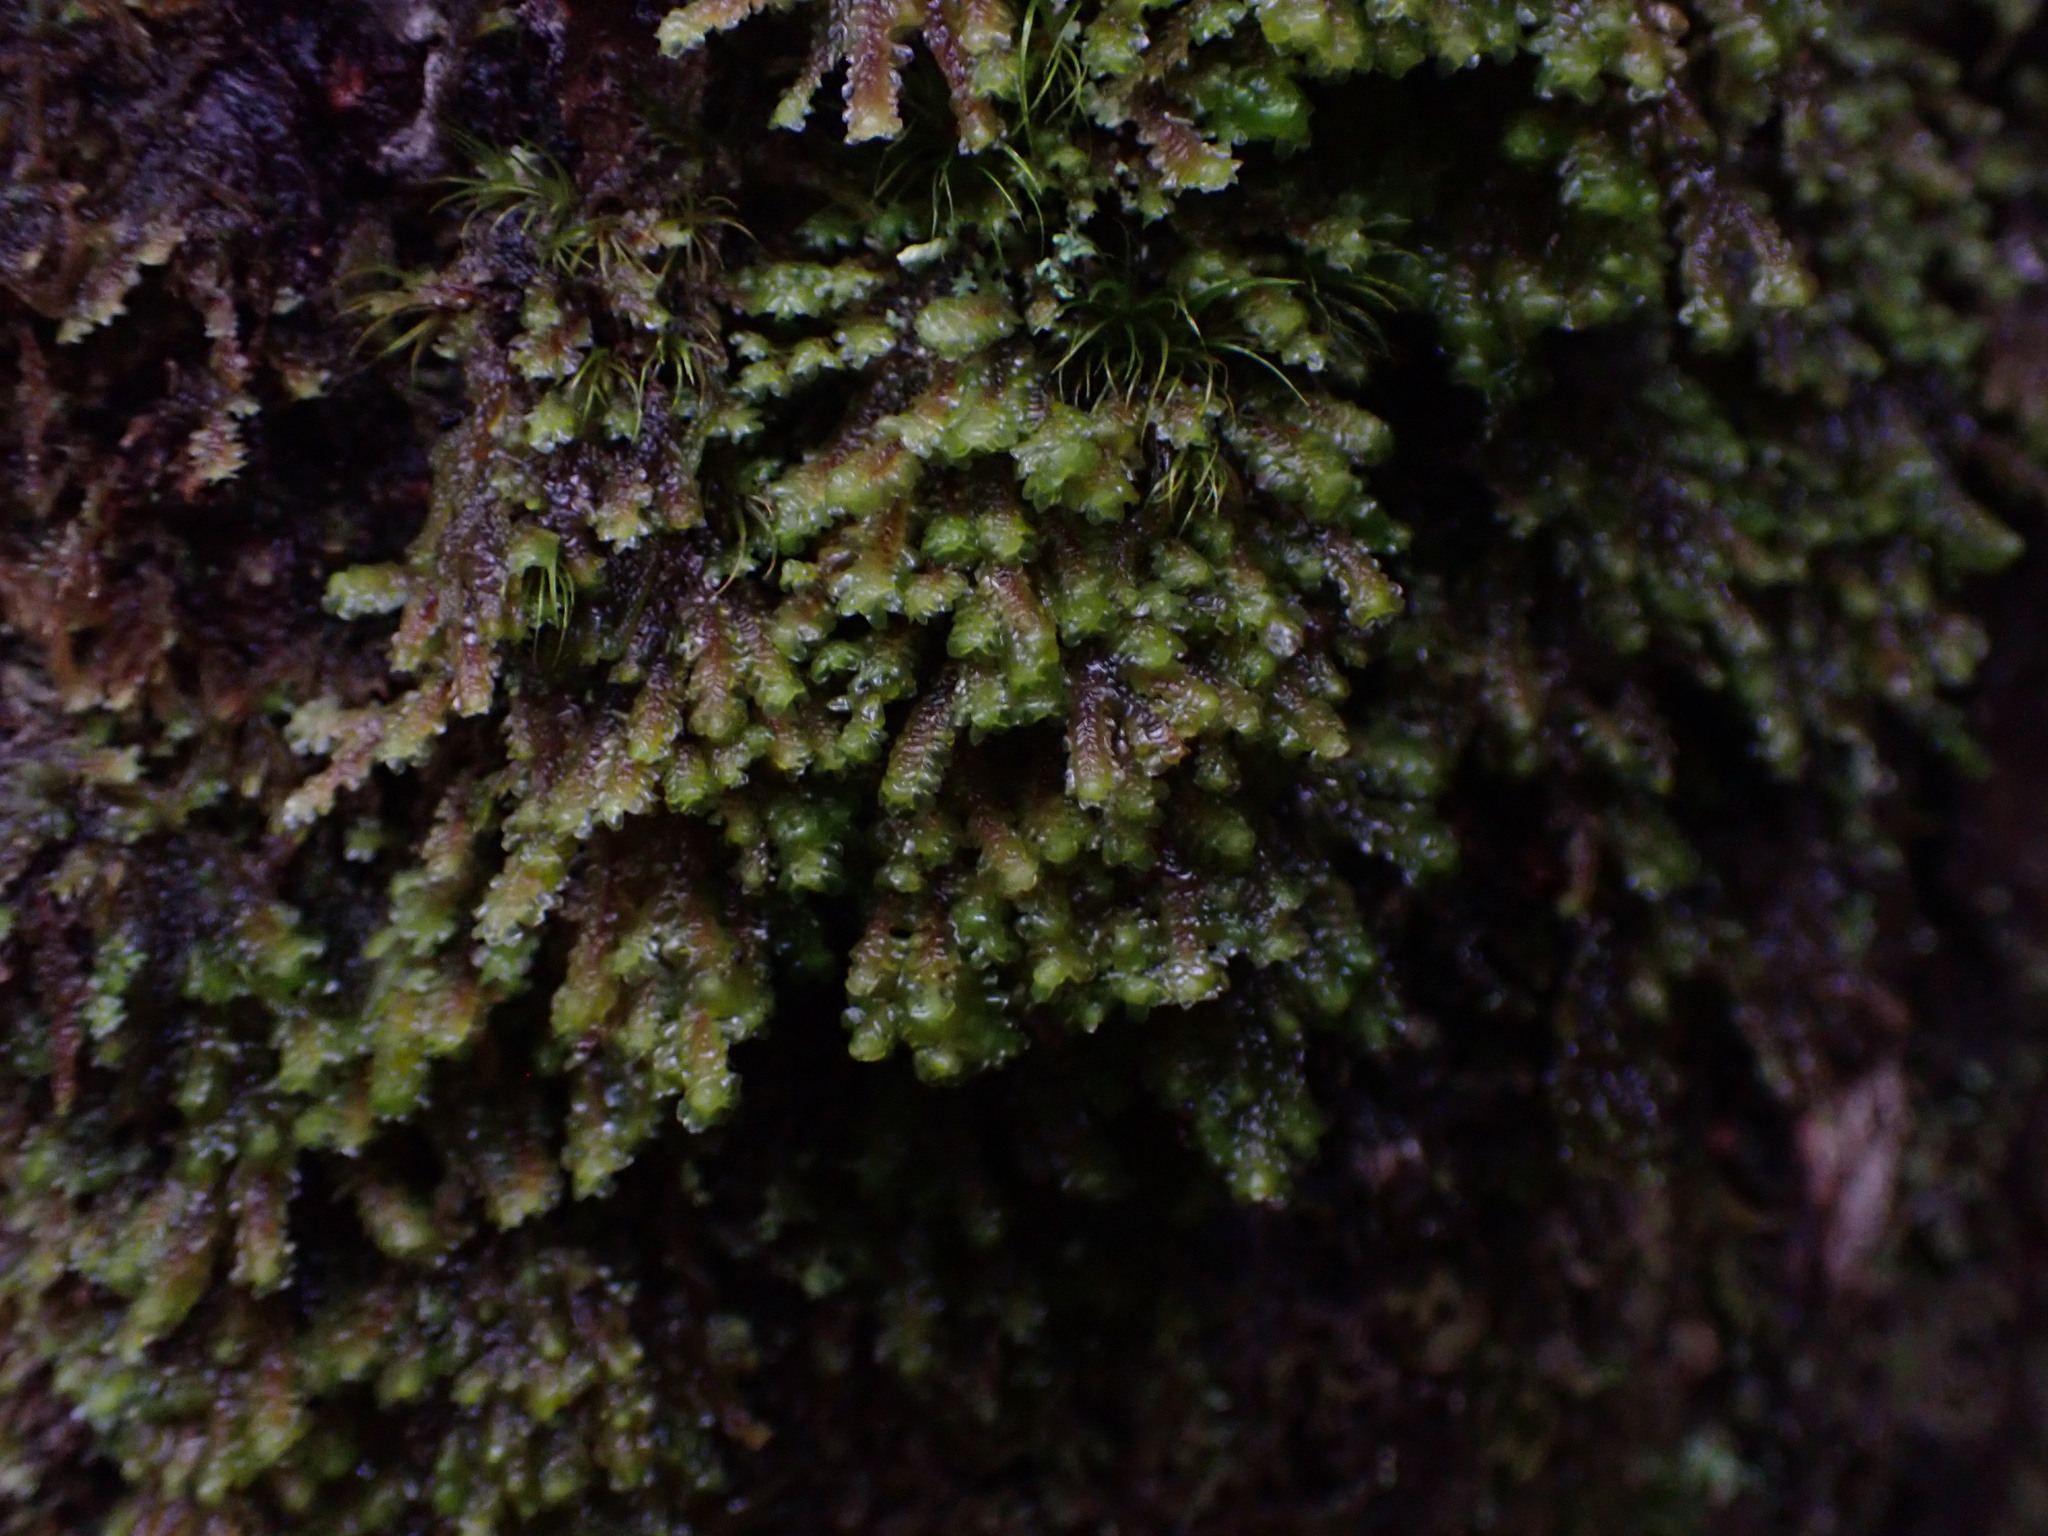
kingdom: Plantae
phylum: Marchantiophyta
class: Jungermanniopsida
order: Jungermanniales
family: Scapaniaceae
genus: Scapania
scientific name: Scapania bolanderi
